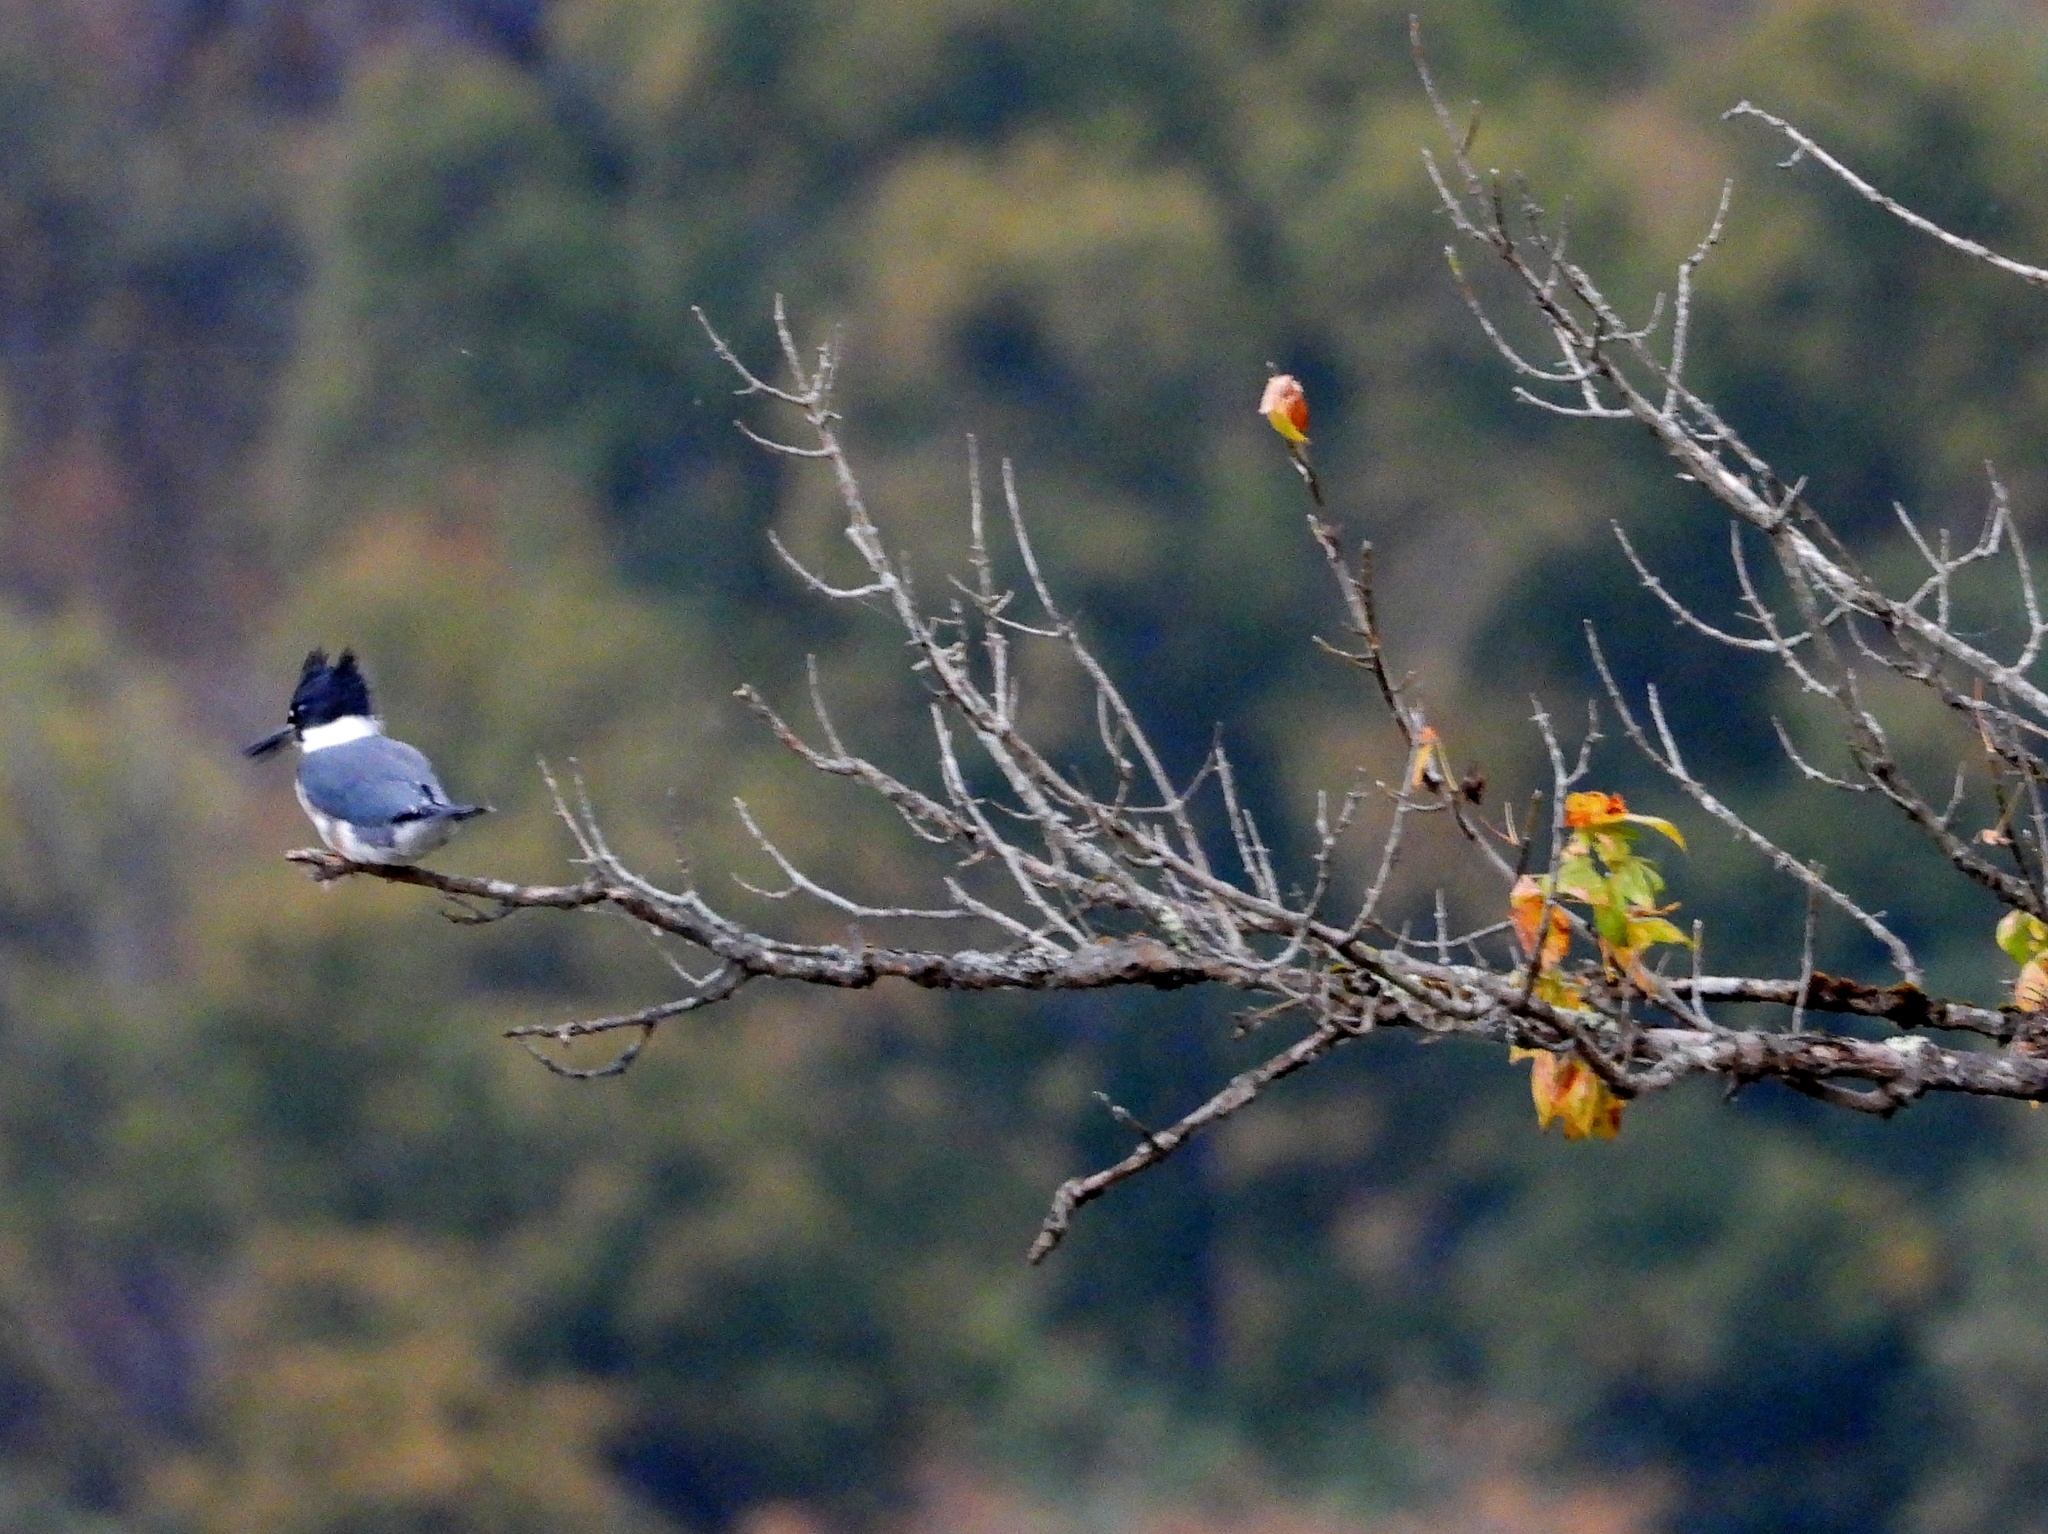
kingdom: Animalia
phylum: Chordata
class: Aves
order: Coraciiformes
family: Alcedinidae
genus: Megaceryle
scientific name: Megaceryle alcyon
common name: Belted kingfisher
